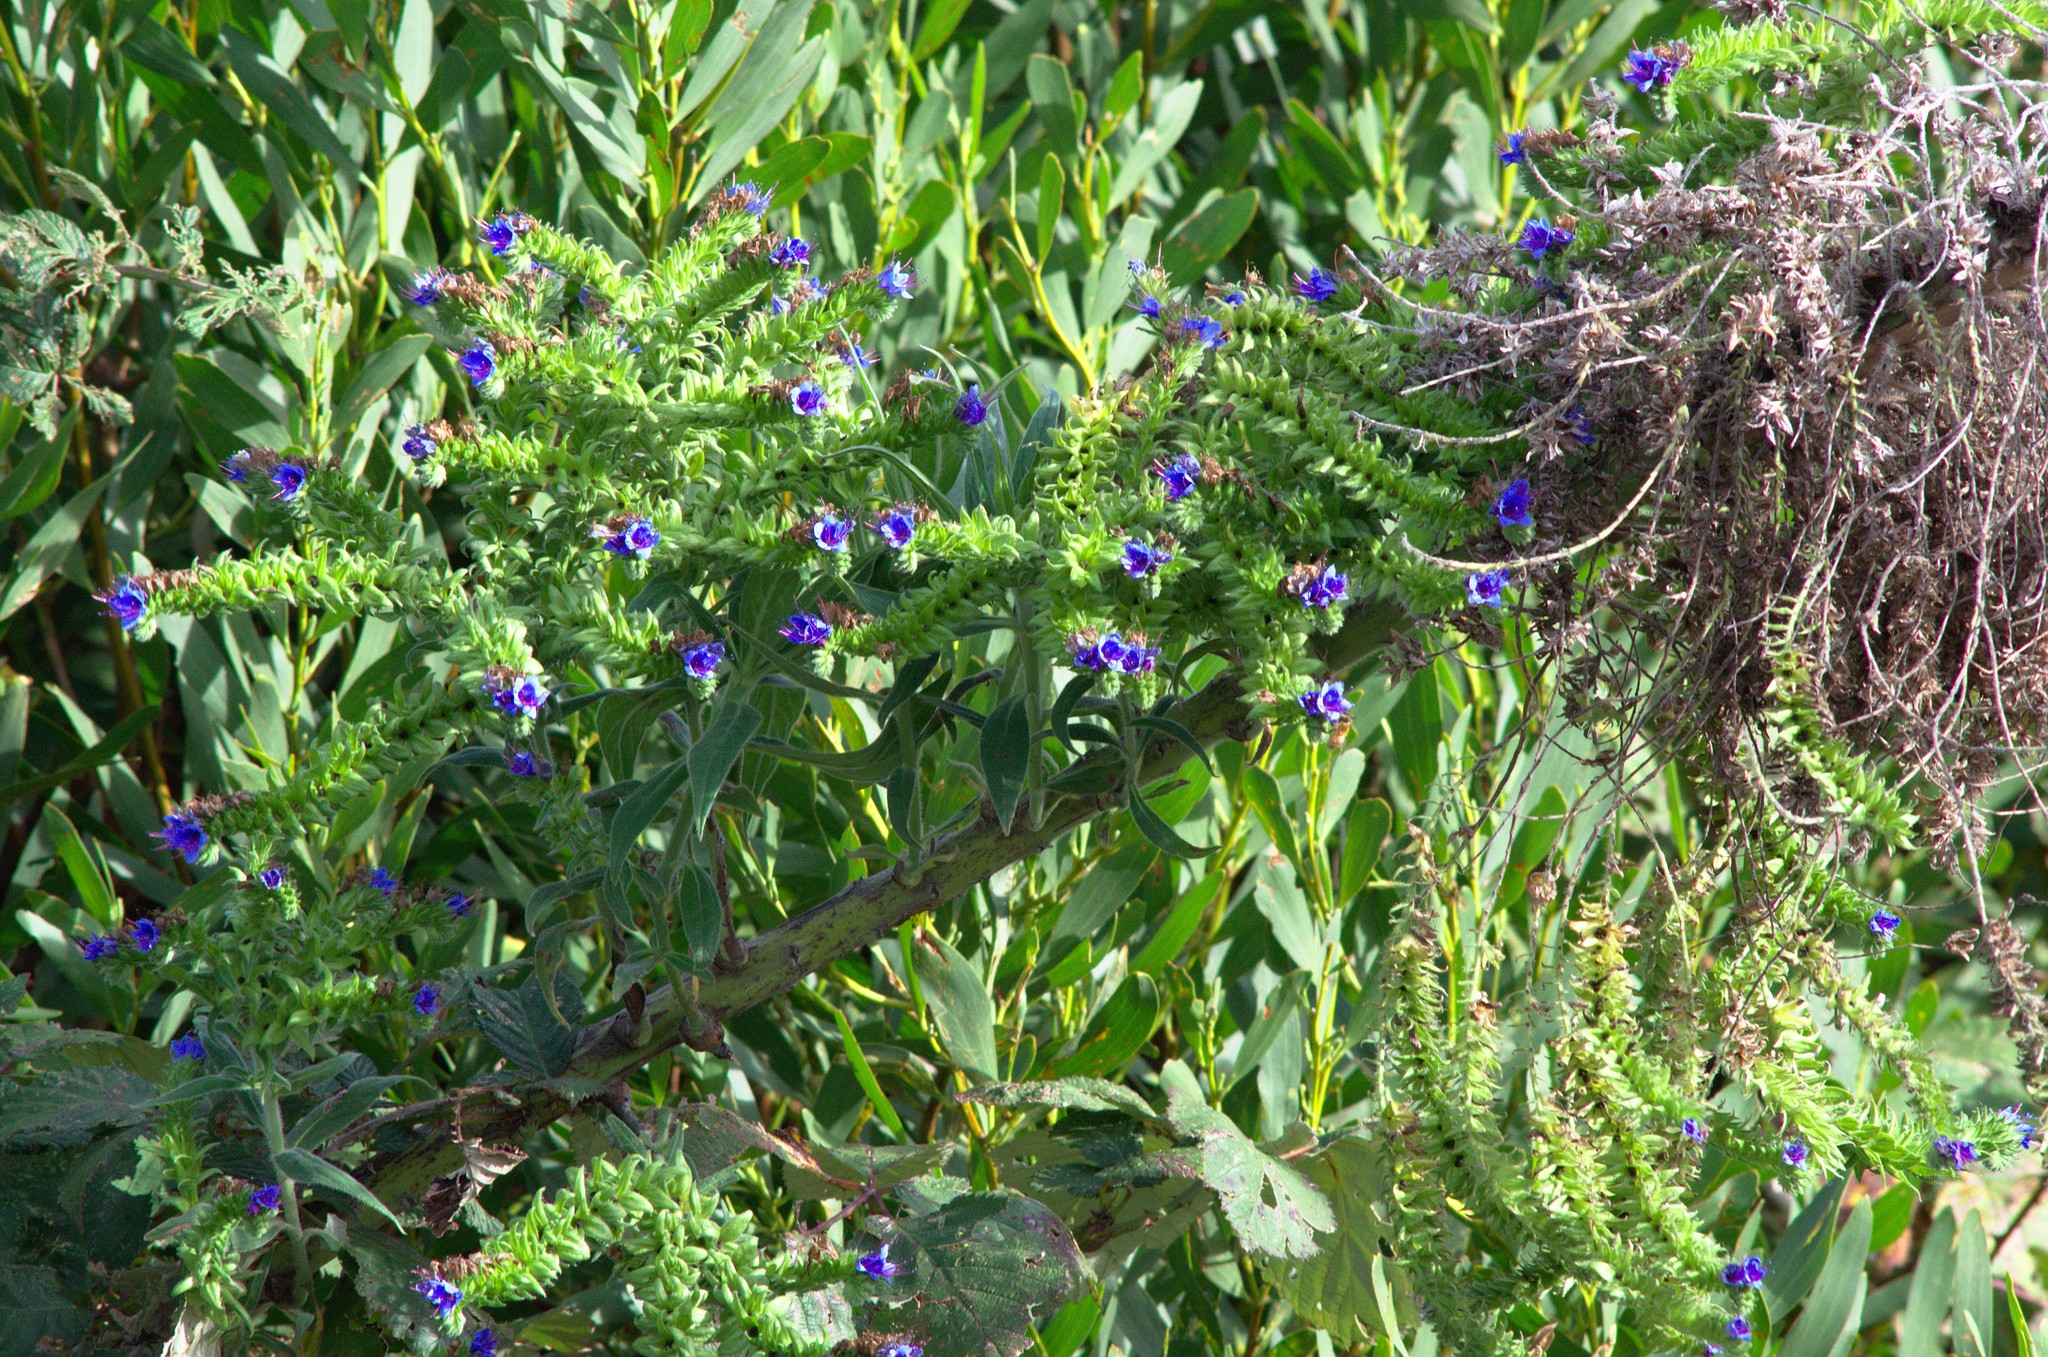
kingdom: Plantae
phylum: Tracheophyta
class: Magnoliopsida
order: Boraginales
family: Boraginaceae
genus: Echium
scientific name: Echium candicans
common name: Pride of madeira
